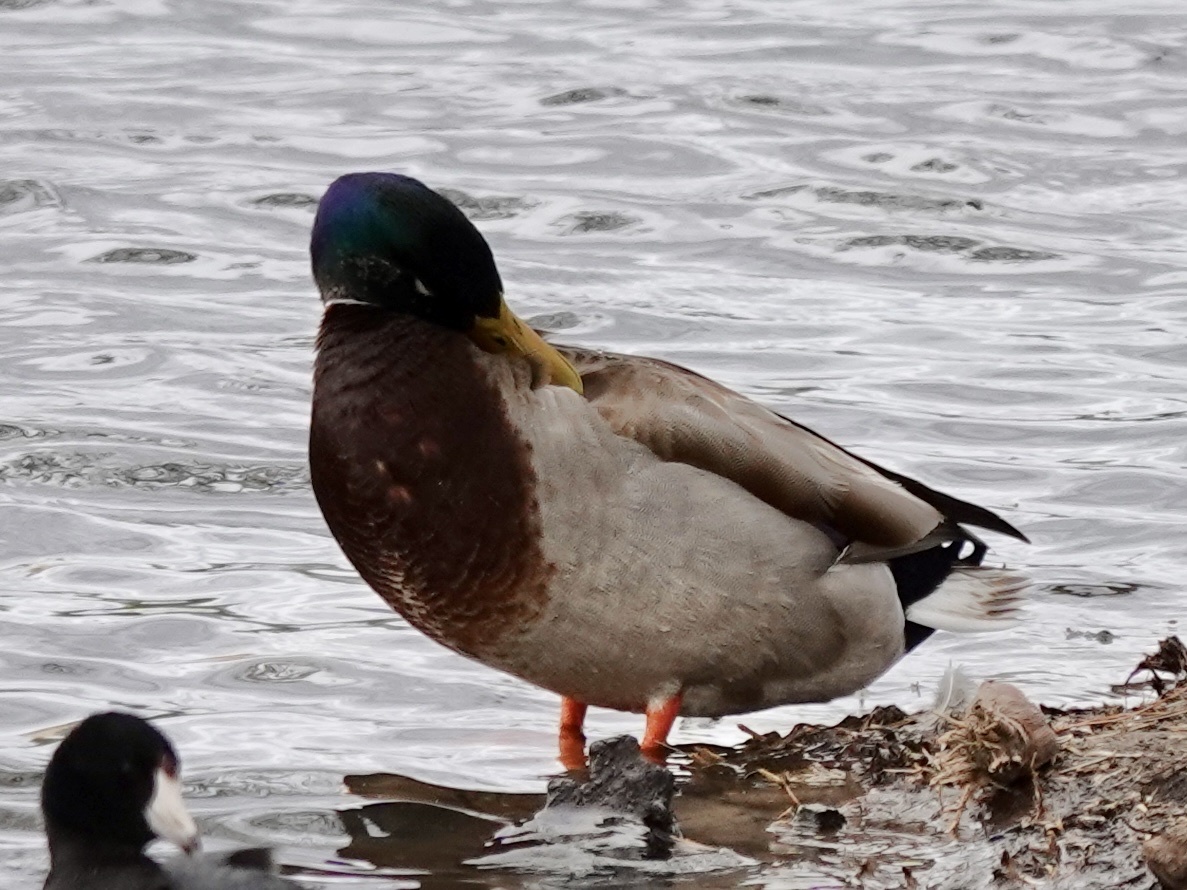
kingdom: Animalia
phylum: Chordata
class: Aves
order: Anseriformes
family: Anatidae
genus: Anas
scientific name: Anas platyrhynchos
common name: Mallard
